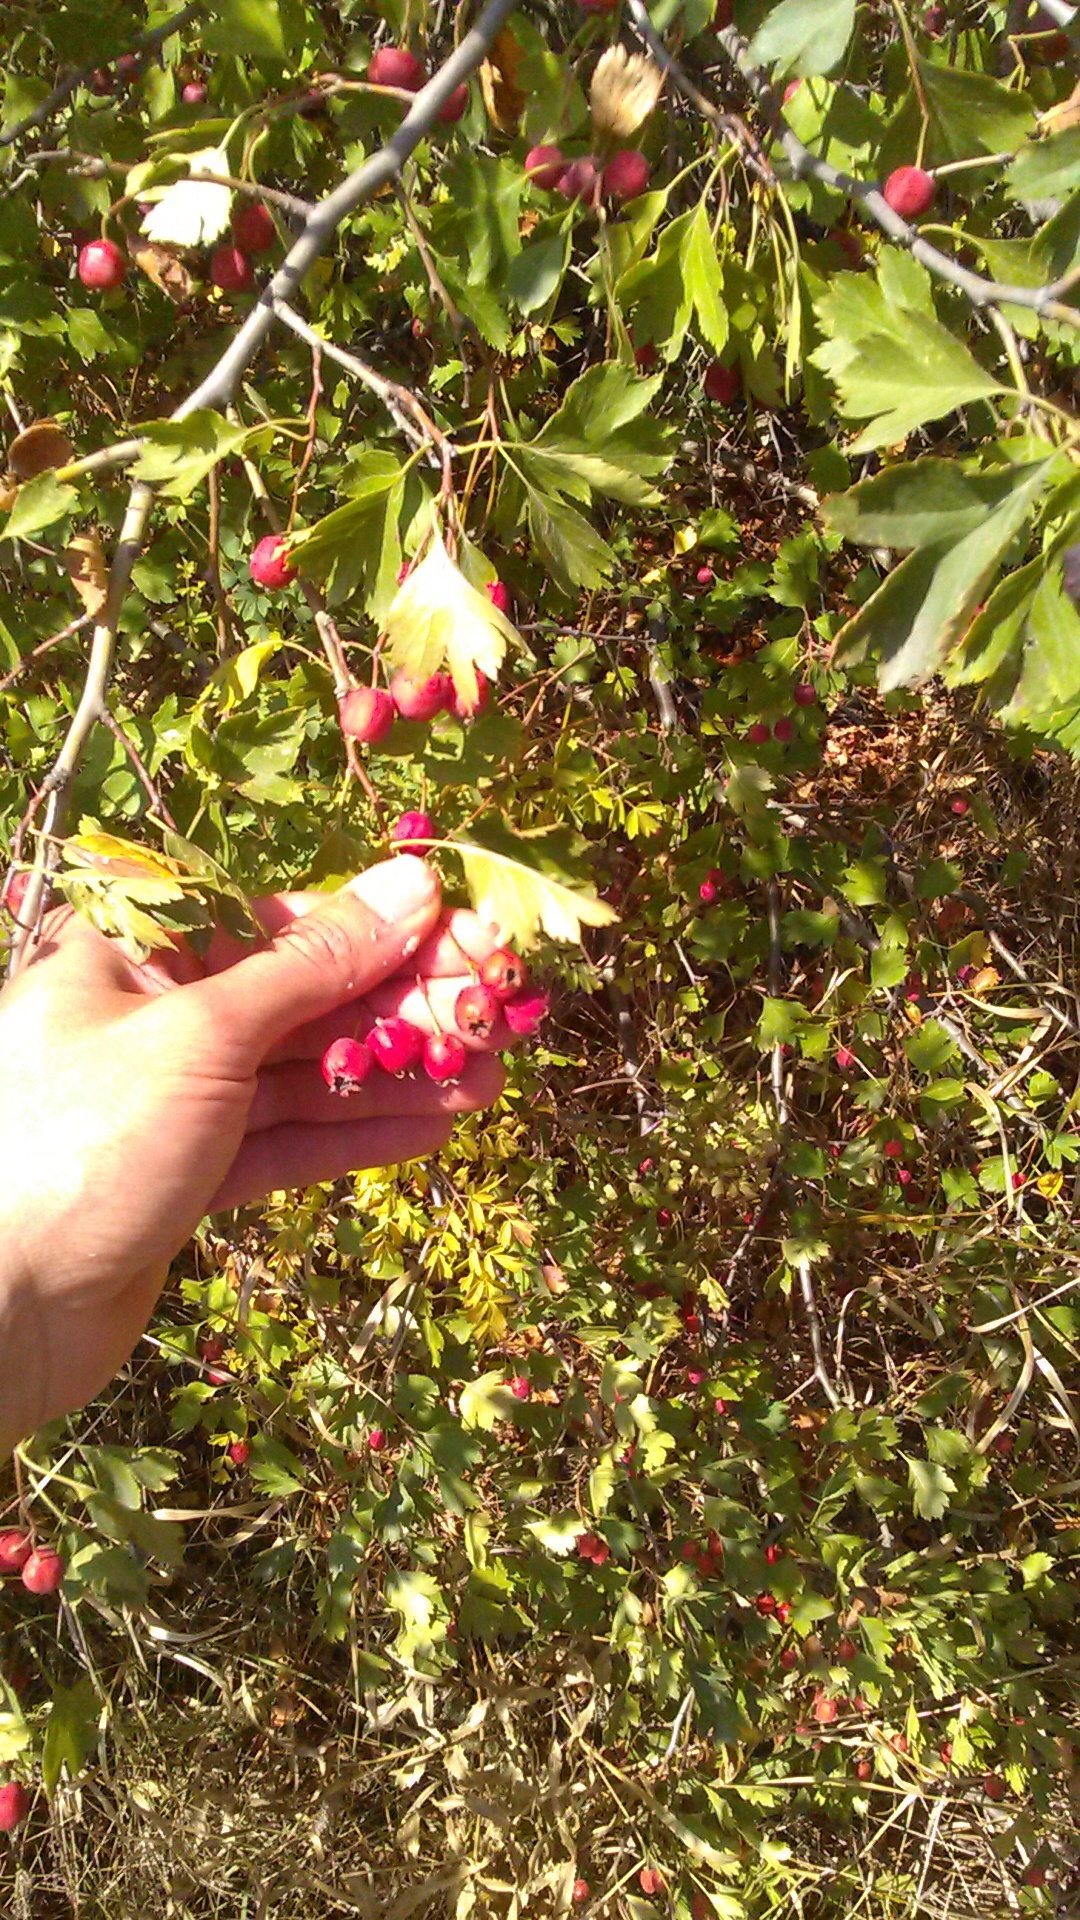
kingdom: Plantae
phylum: Tracheophyta
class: Magnoliopsida
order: Rosales
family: Rosaceae
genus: Crataegus
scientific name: Crataegus rubrinervis
